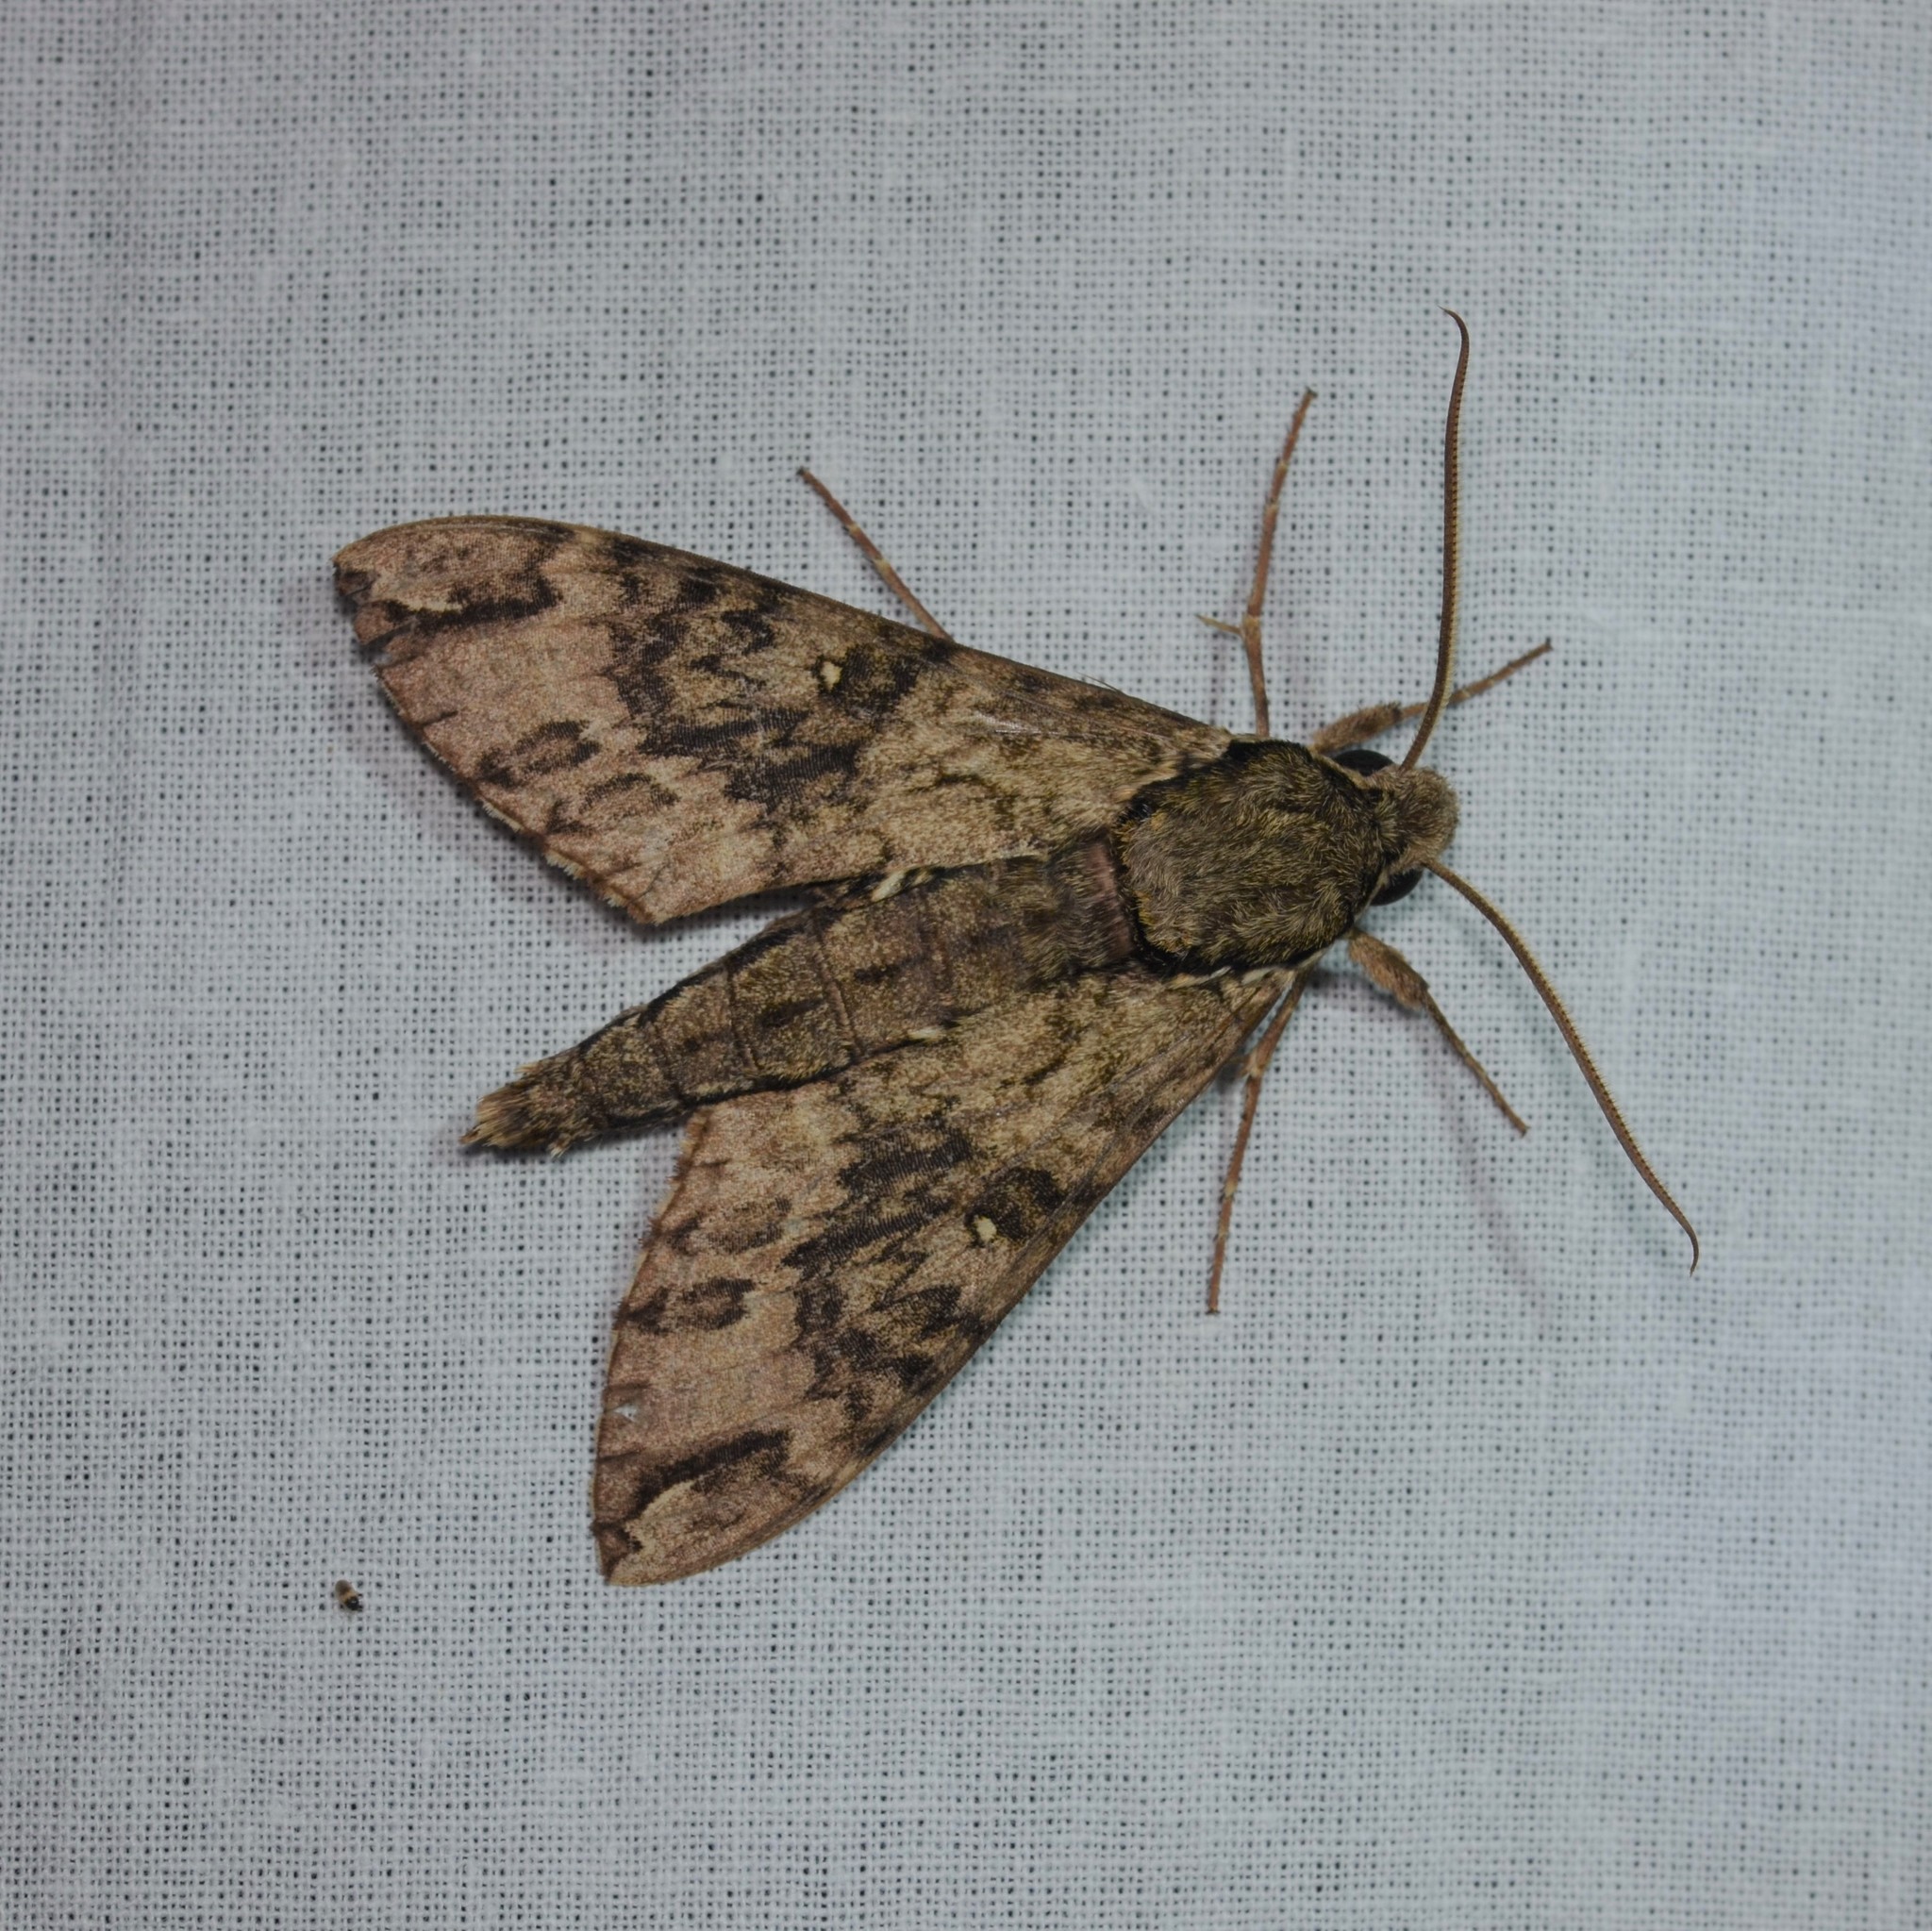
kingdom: Animalia
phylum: Arthropoda
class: Insecta
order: Lepidoptera
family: Sphingidae
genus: Panogena
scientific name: Panogena lingens
